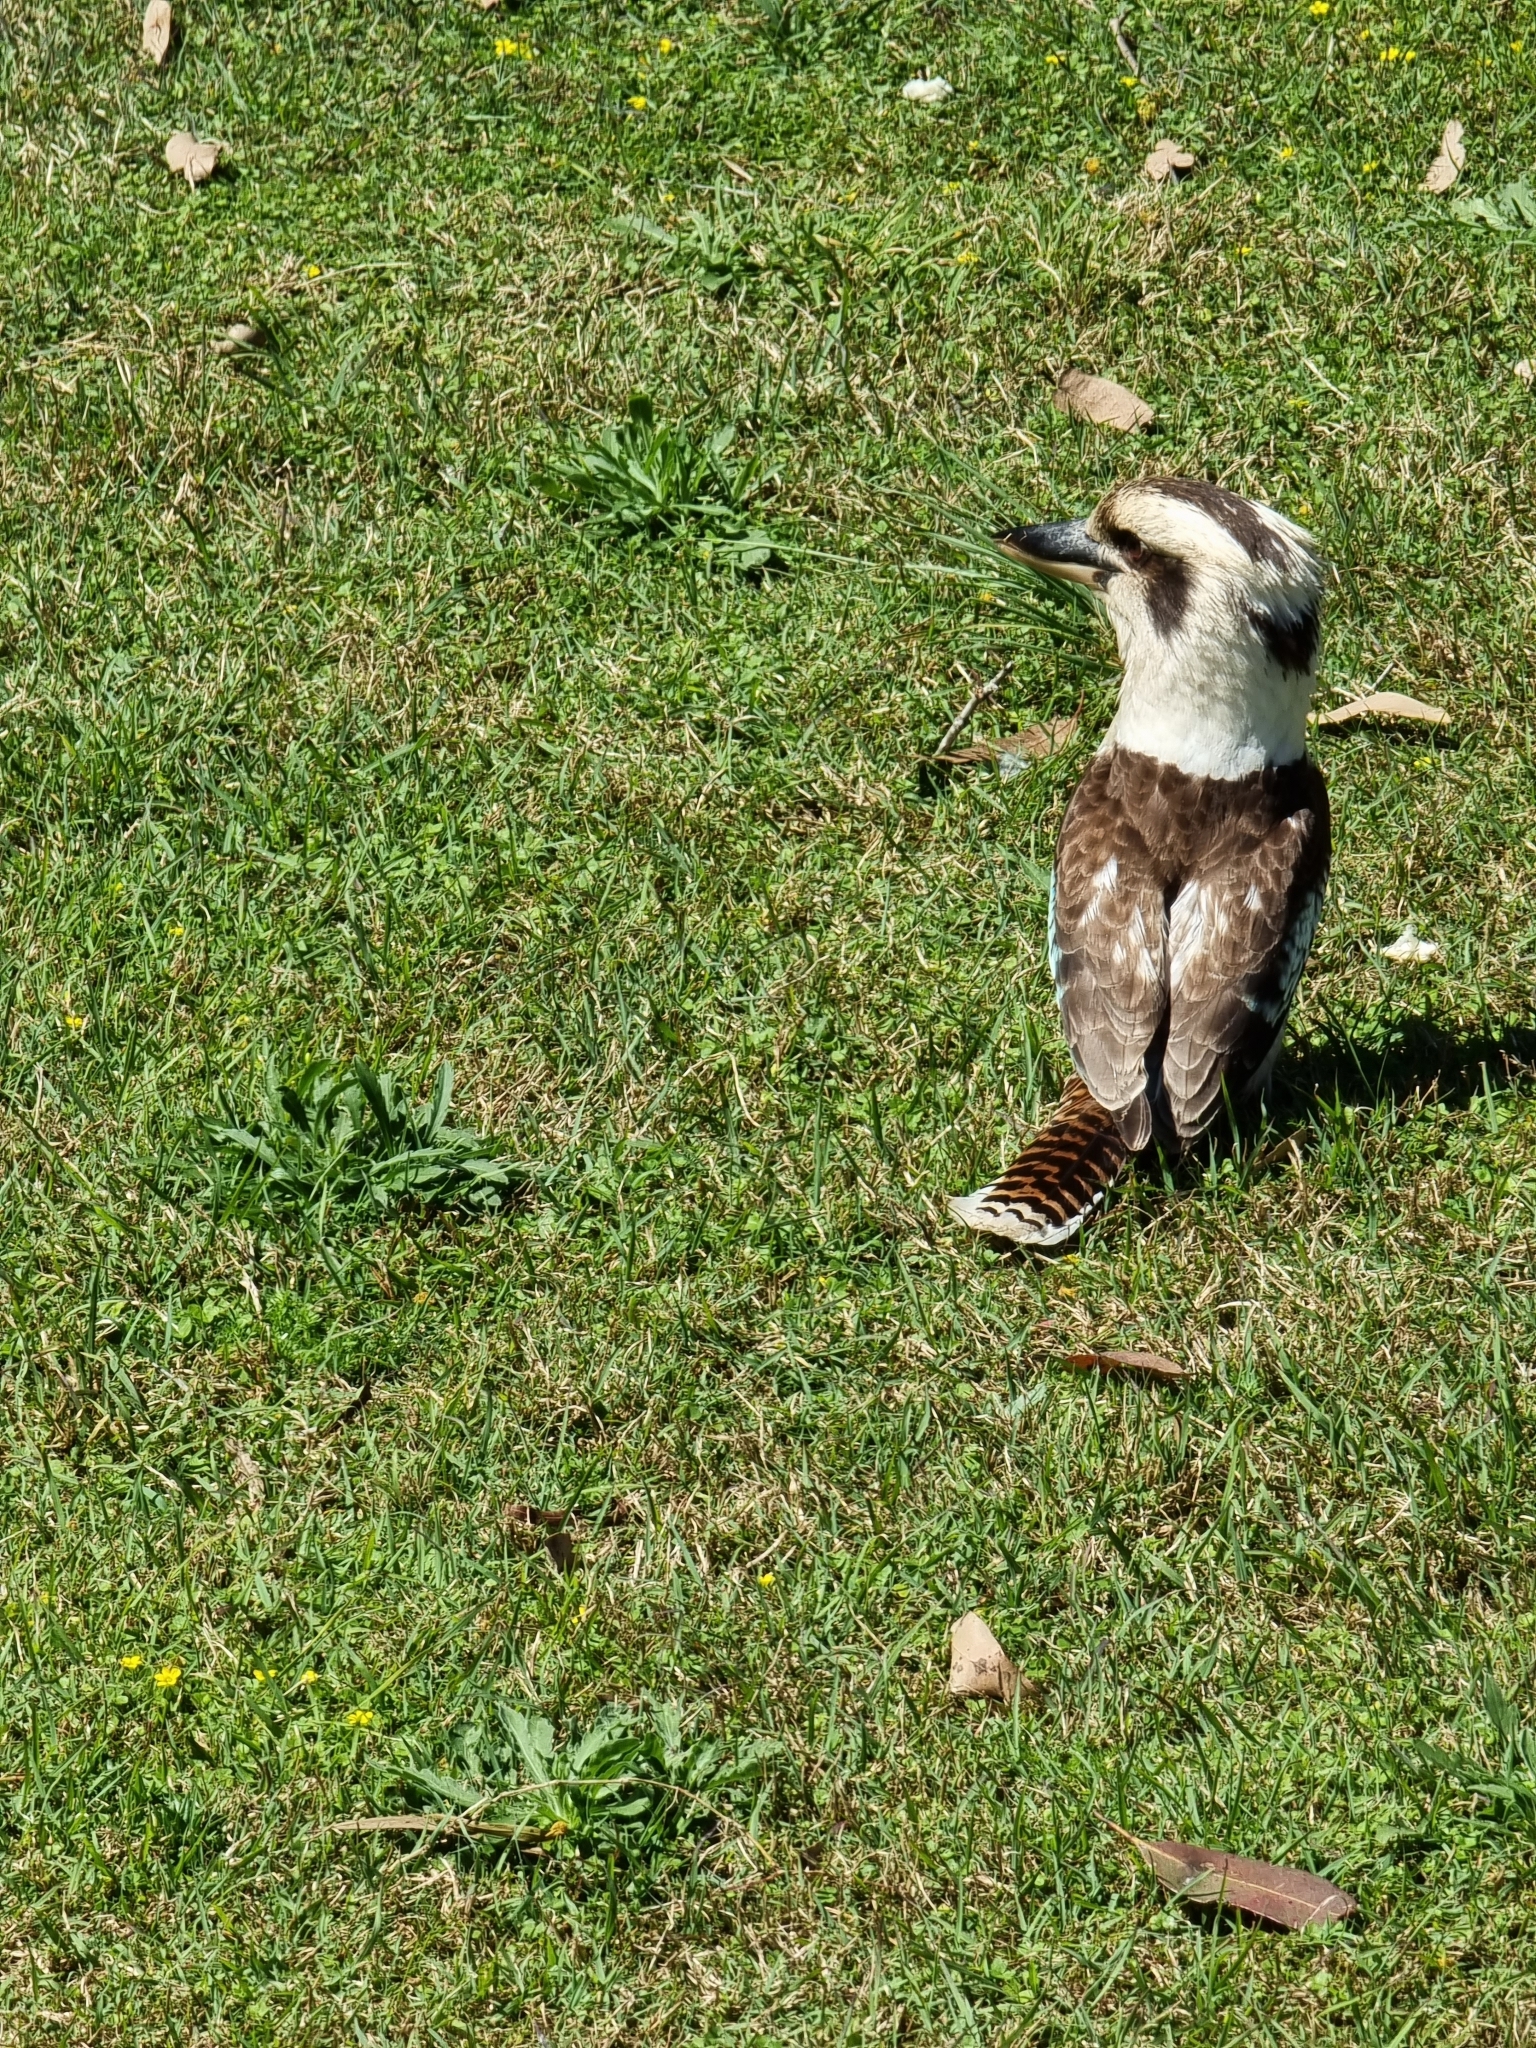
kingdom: Animalia
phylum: Chordata
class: Aves
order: Coraciiformes
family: Alcedinidae
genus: Dacelo
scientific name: Dacelo novaeguineae
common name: Laughing kookaburra
